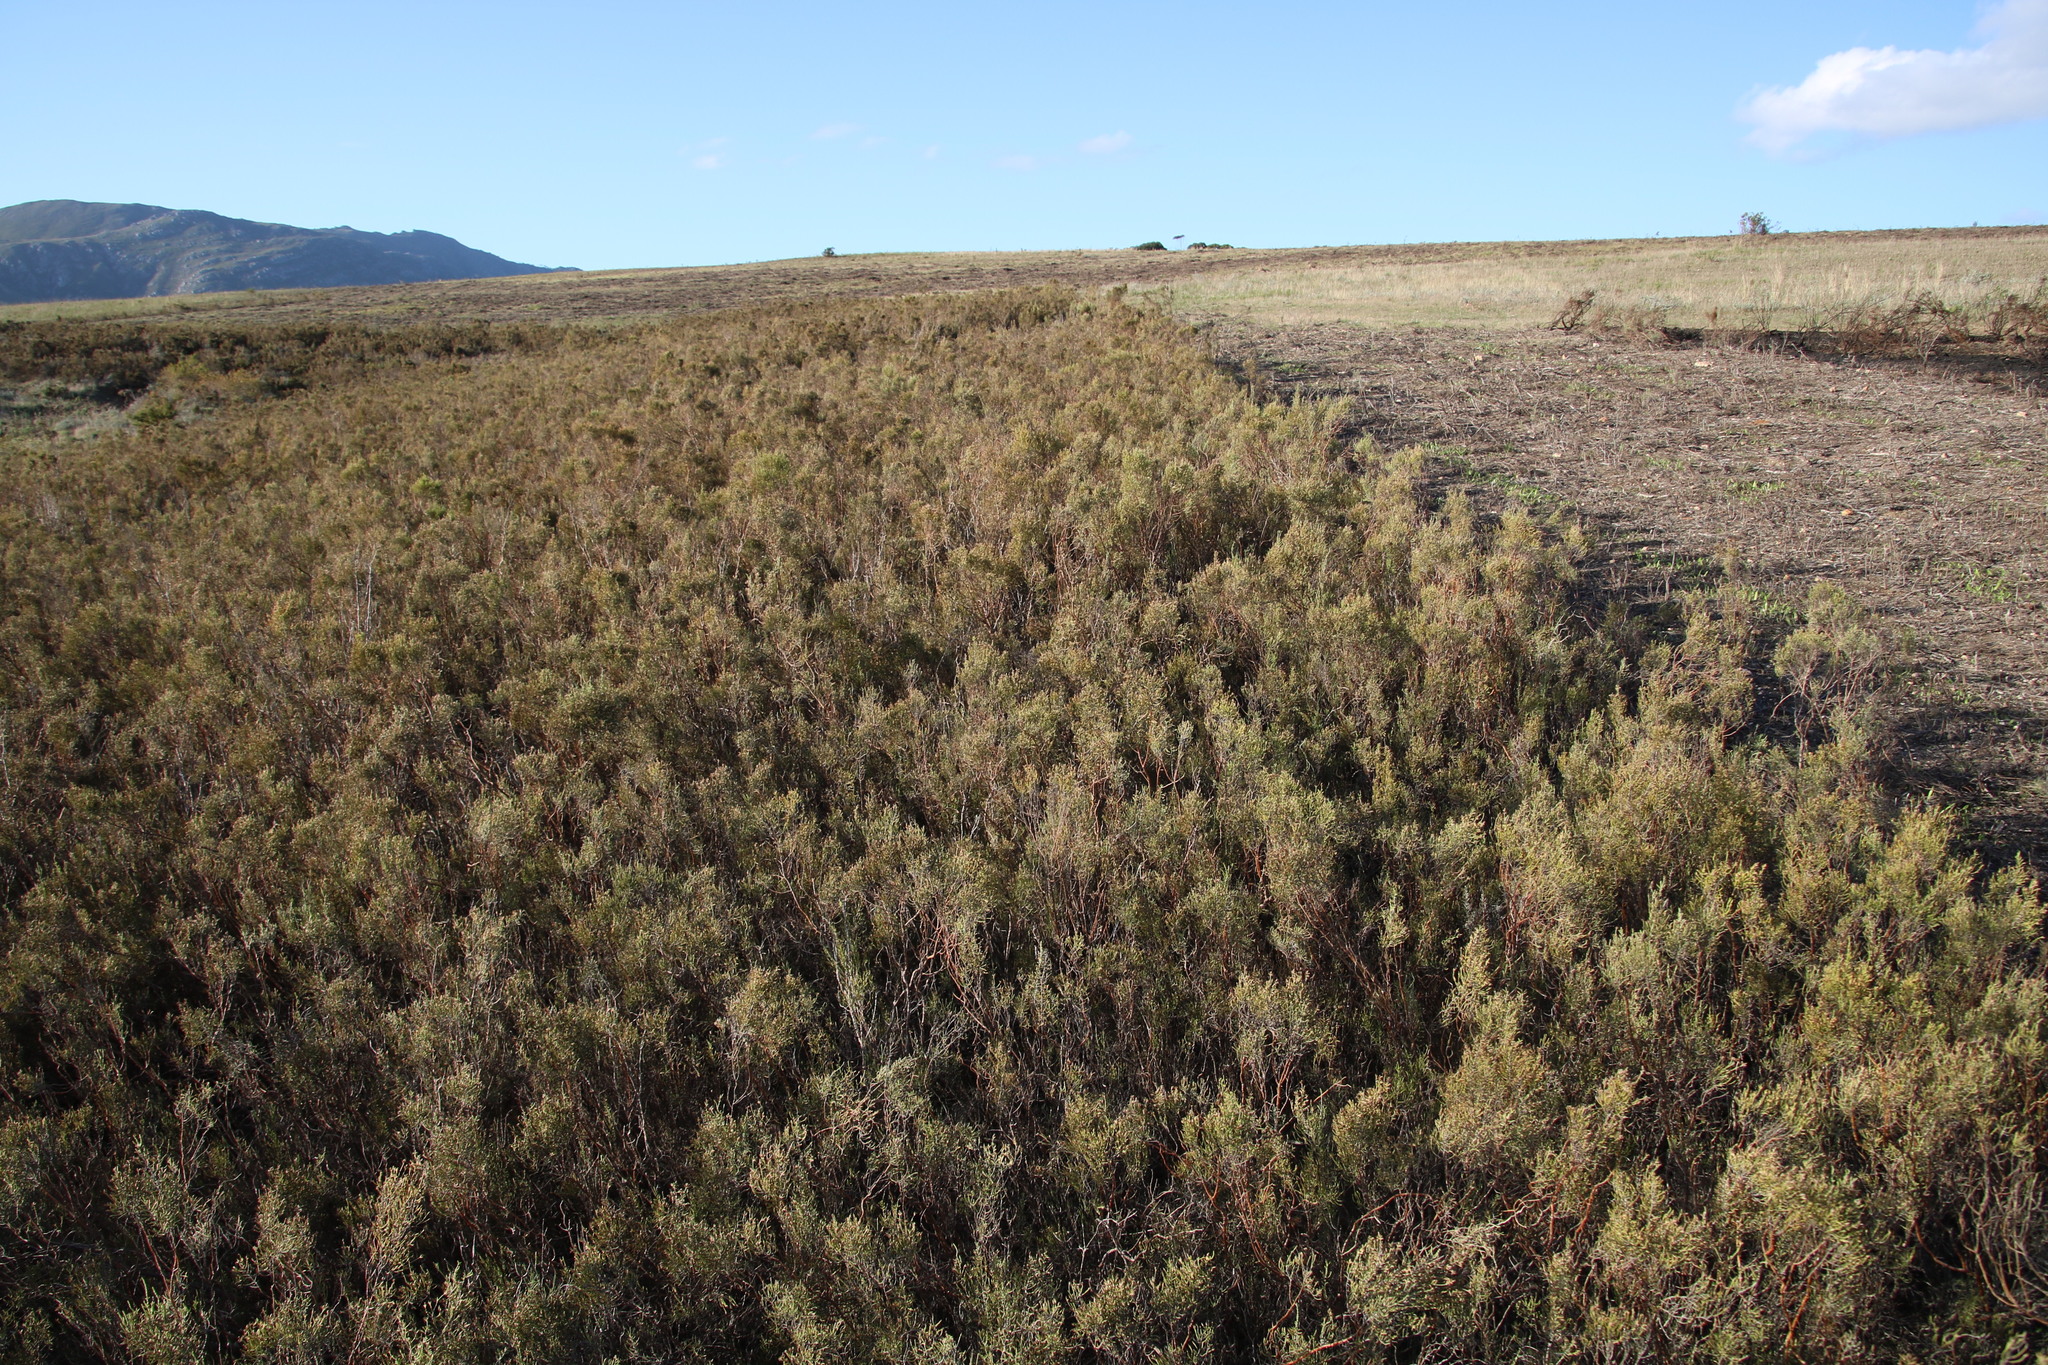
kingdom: Plantae
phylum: Tracheophyta
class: Magnoliopsida
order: Asterales
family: Asteraceae
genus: Dicerothamnus
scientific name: Dicerothamnus rhinocerotis
